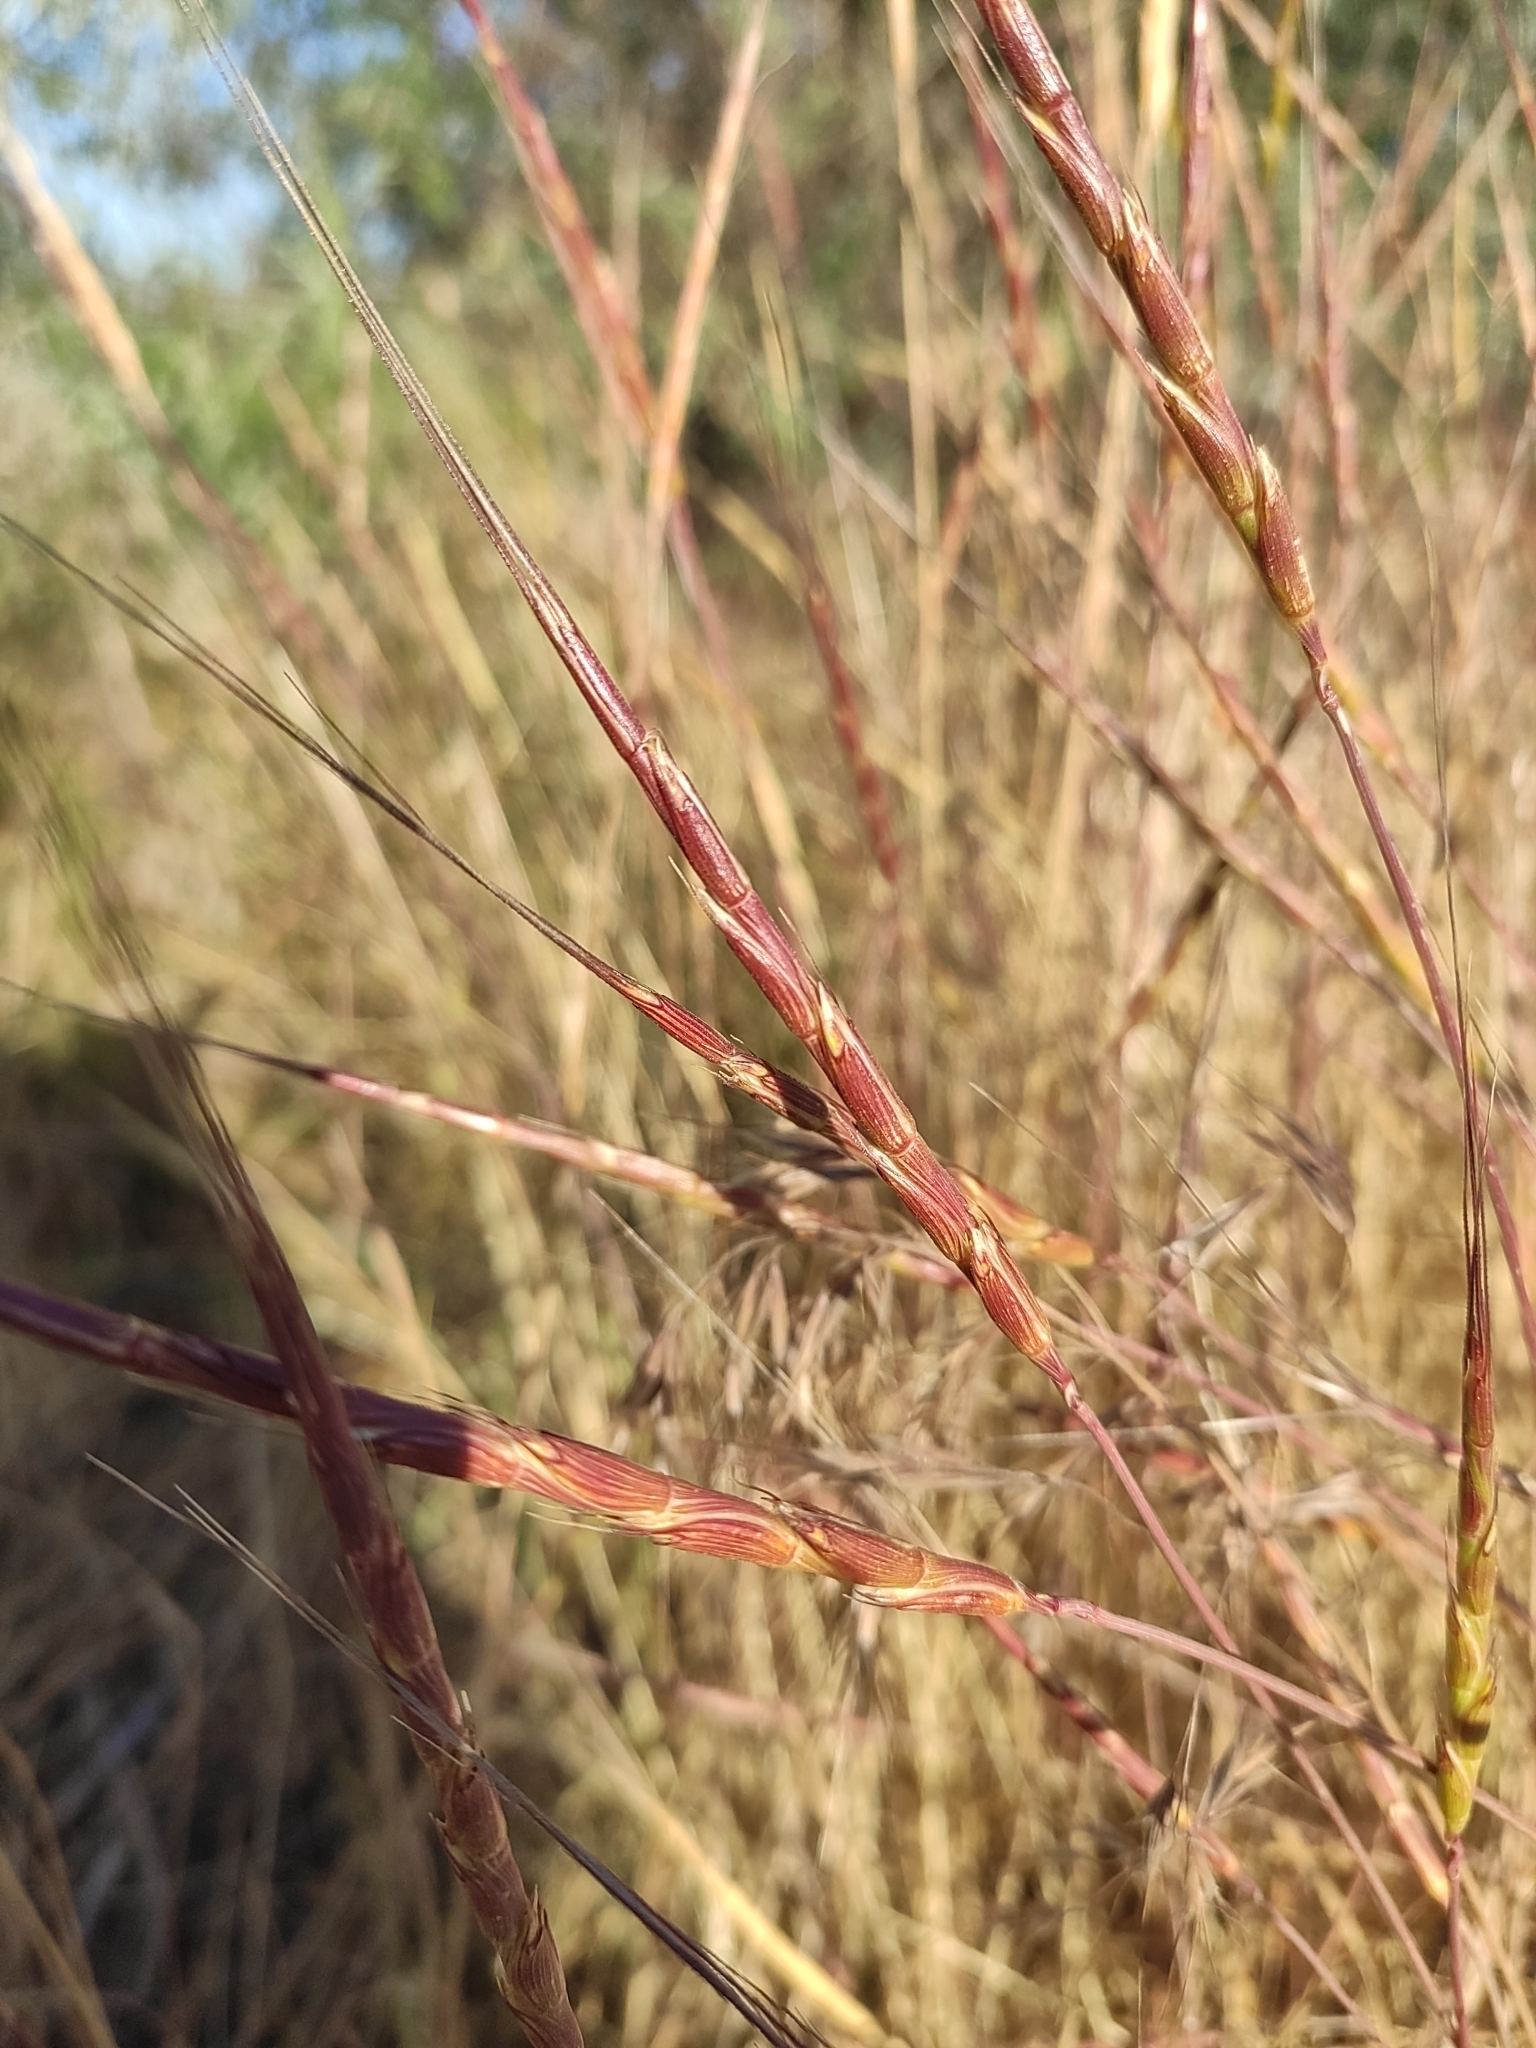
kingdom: Plantae
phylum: Tracheophyta
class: Liliopsida
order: Poales
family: Poaceae
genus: Aegilops
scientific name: Aegilops cylindrica
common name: Jointed goatgrass
